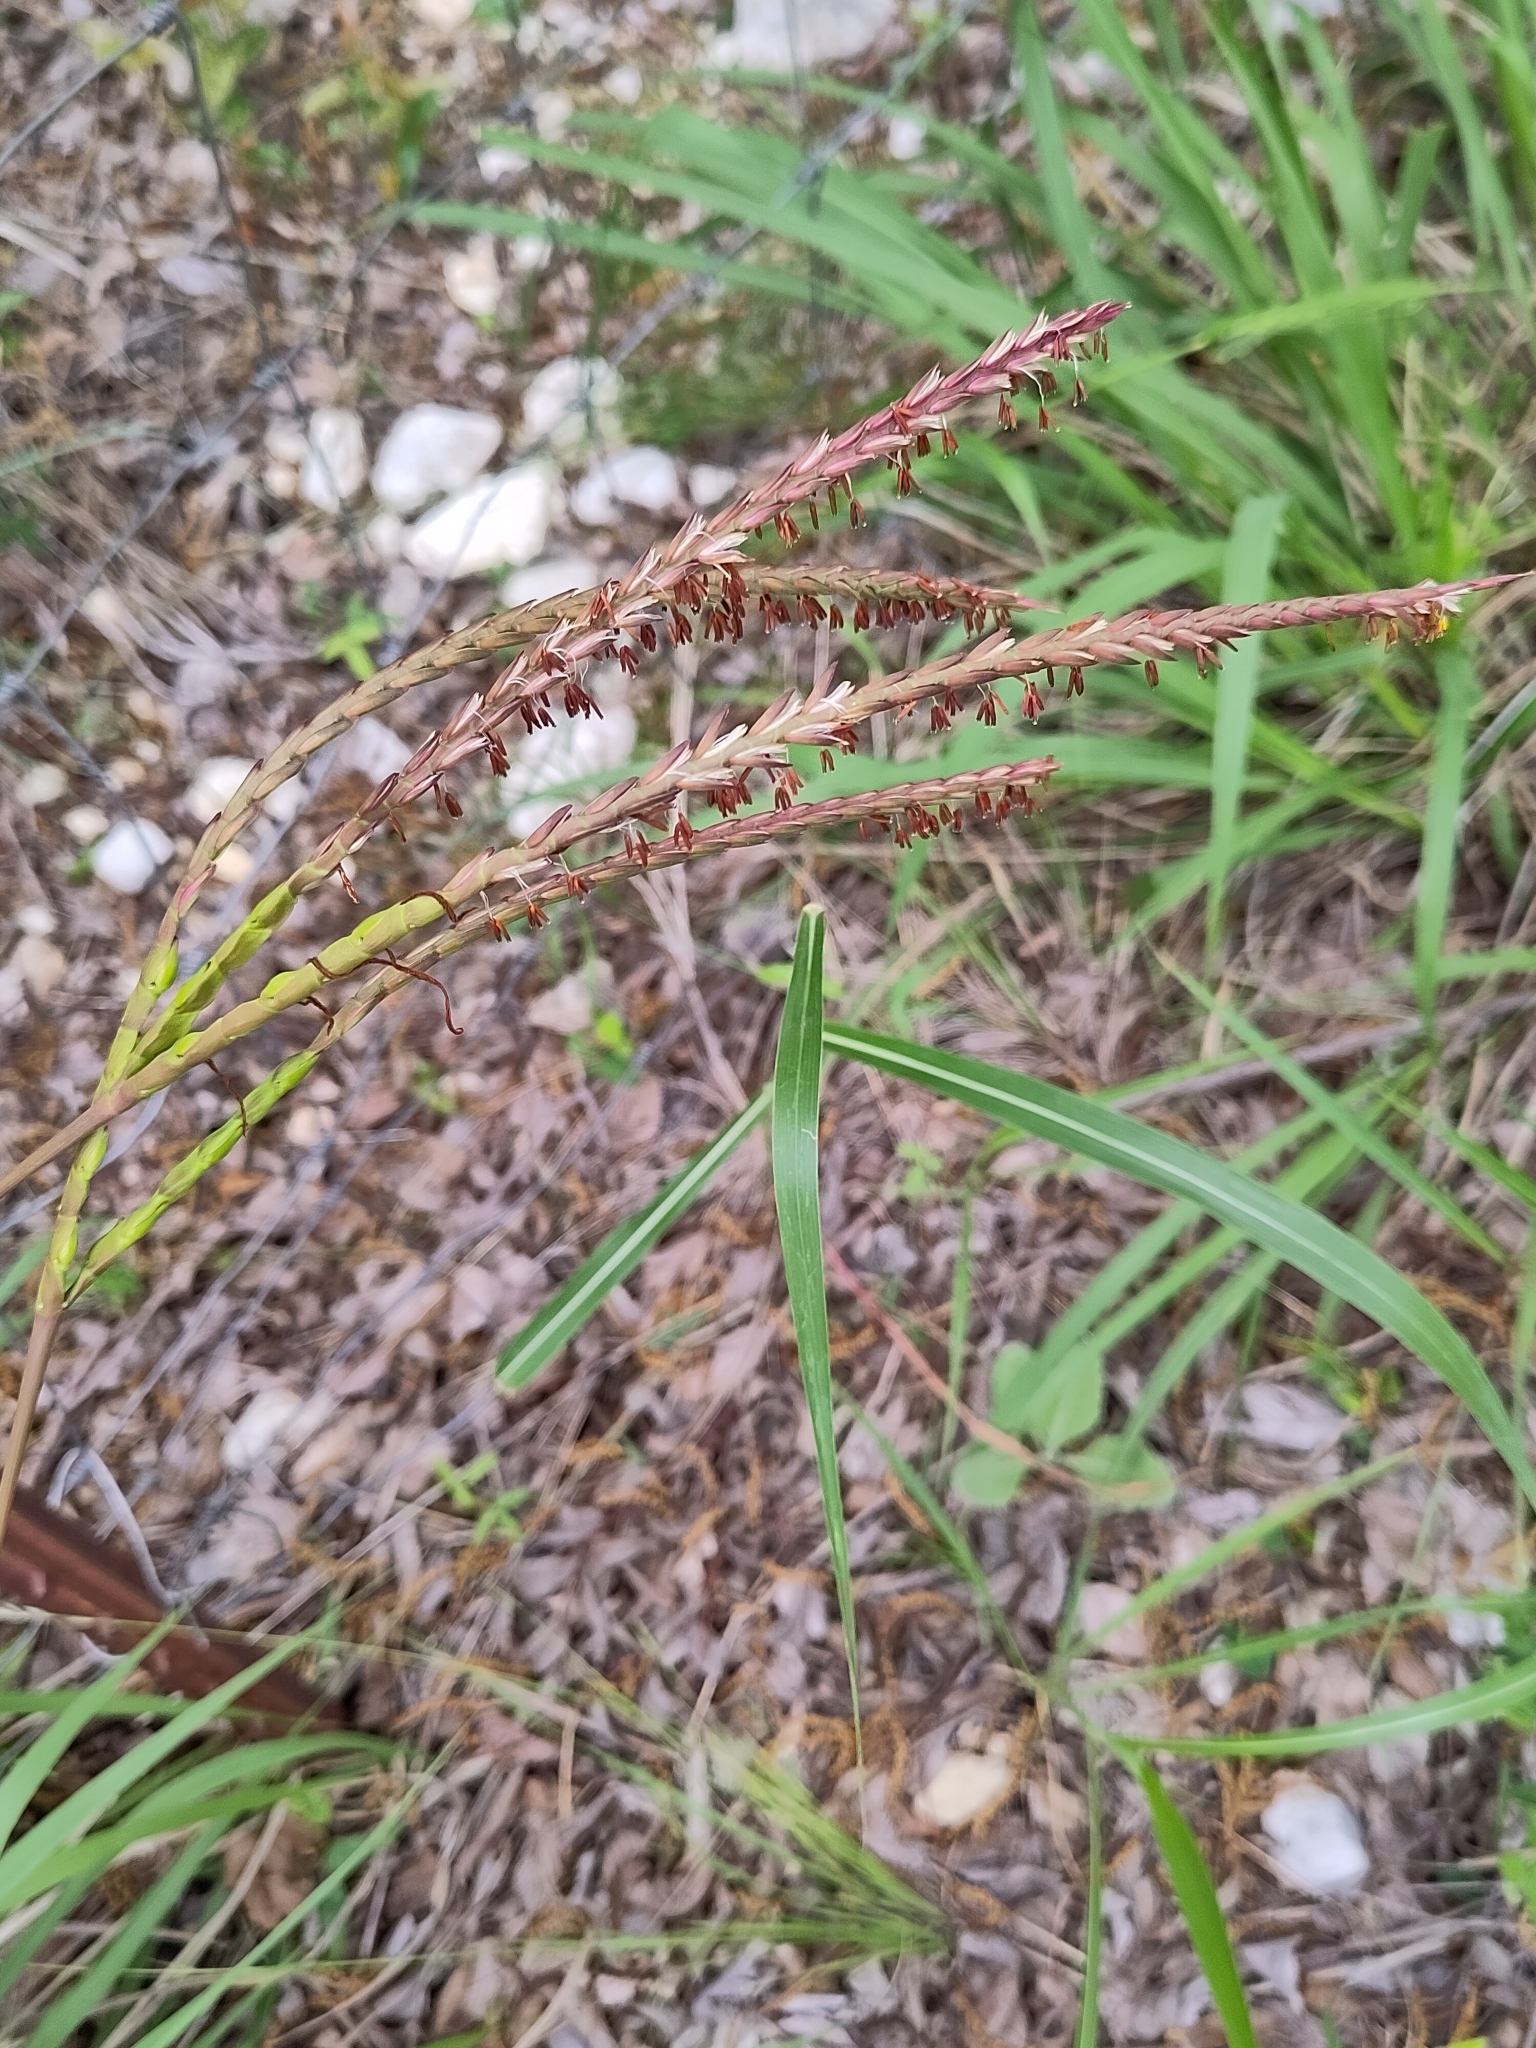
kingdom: Plantae
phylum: Tracheophyta
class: Liliopsida
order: Poales
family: Poaceae
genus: Tripsacum
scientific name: Tripsacum dactyloides
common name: Buffalo-grass
